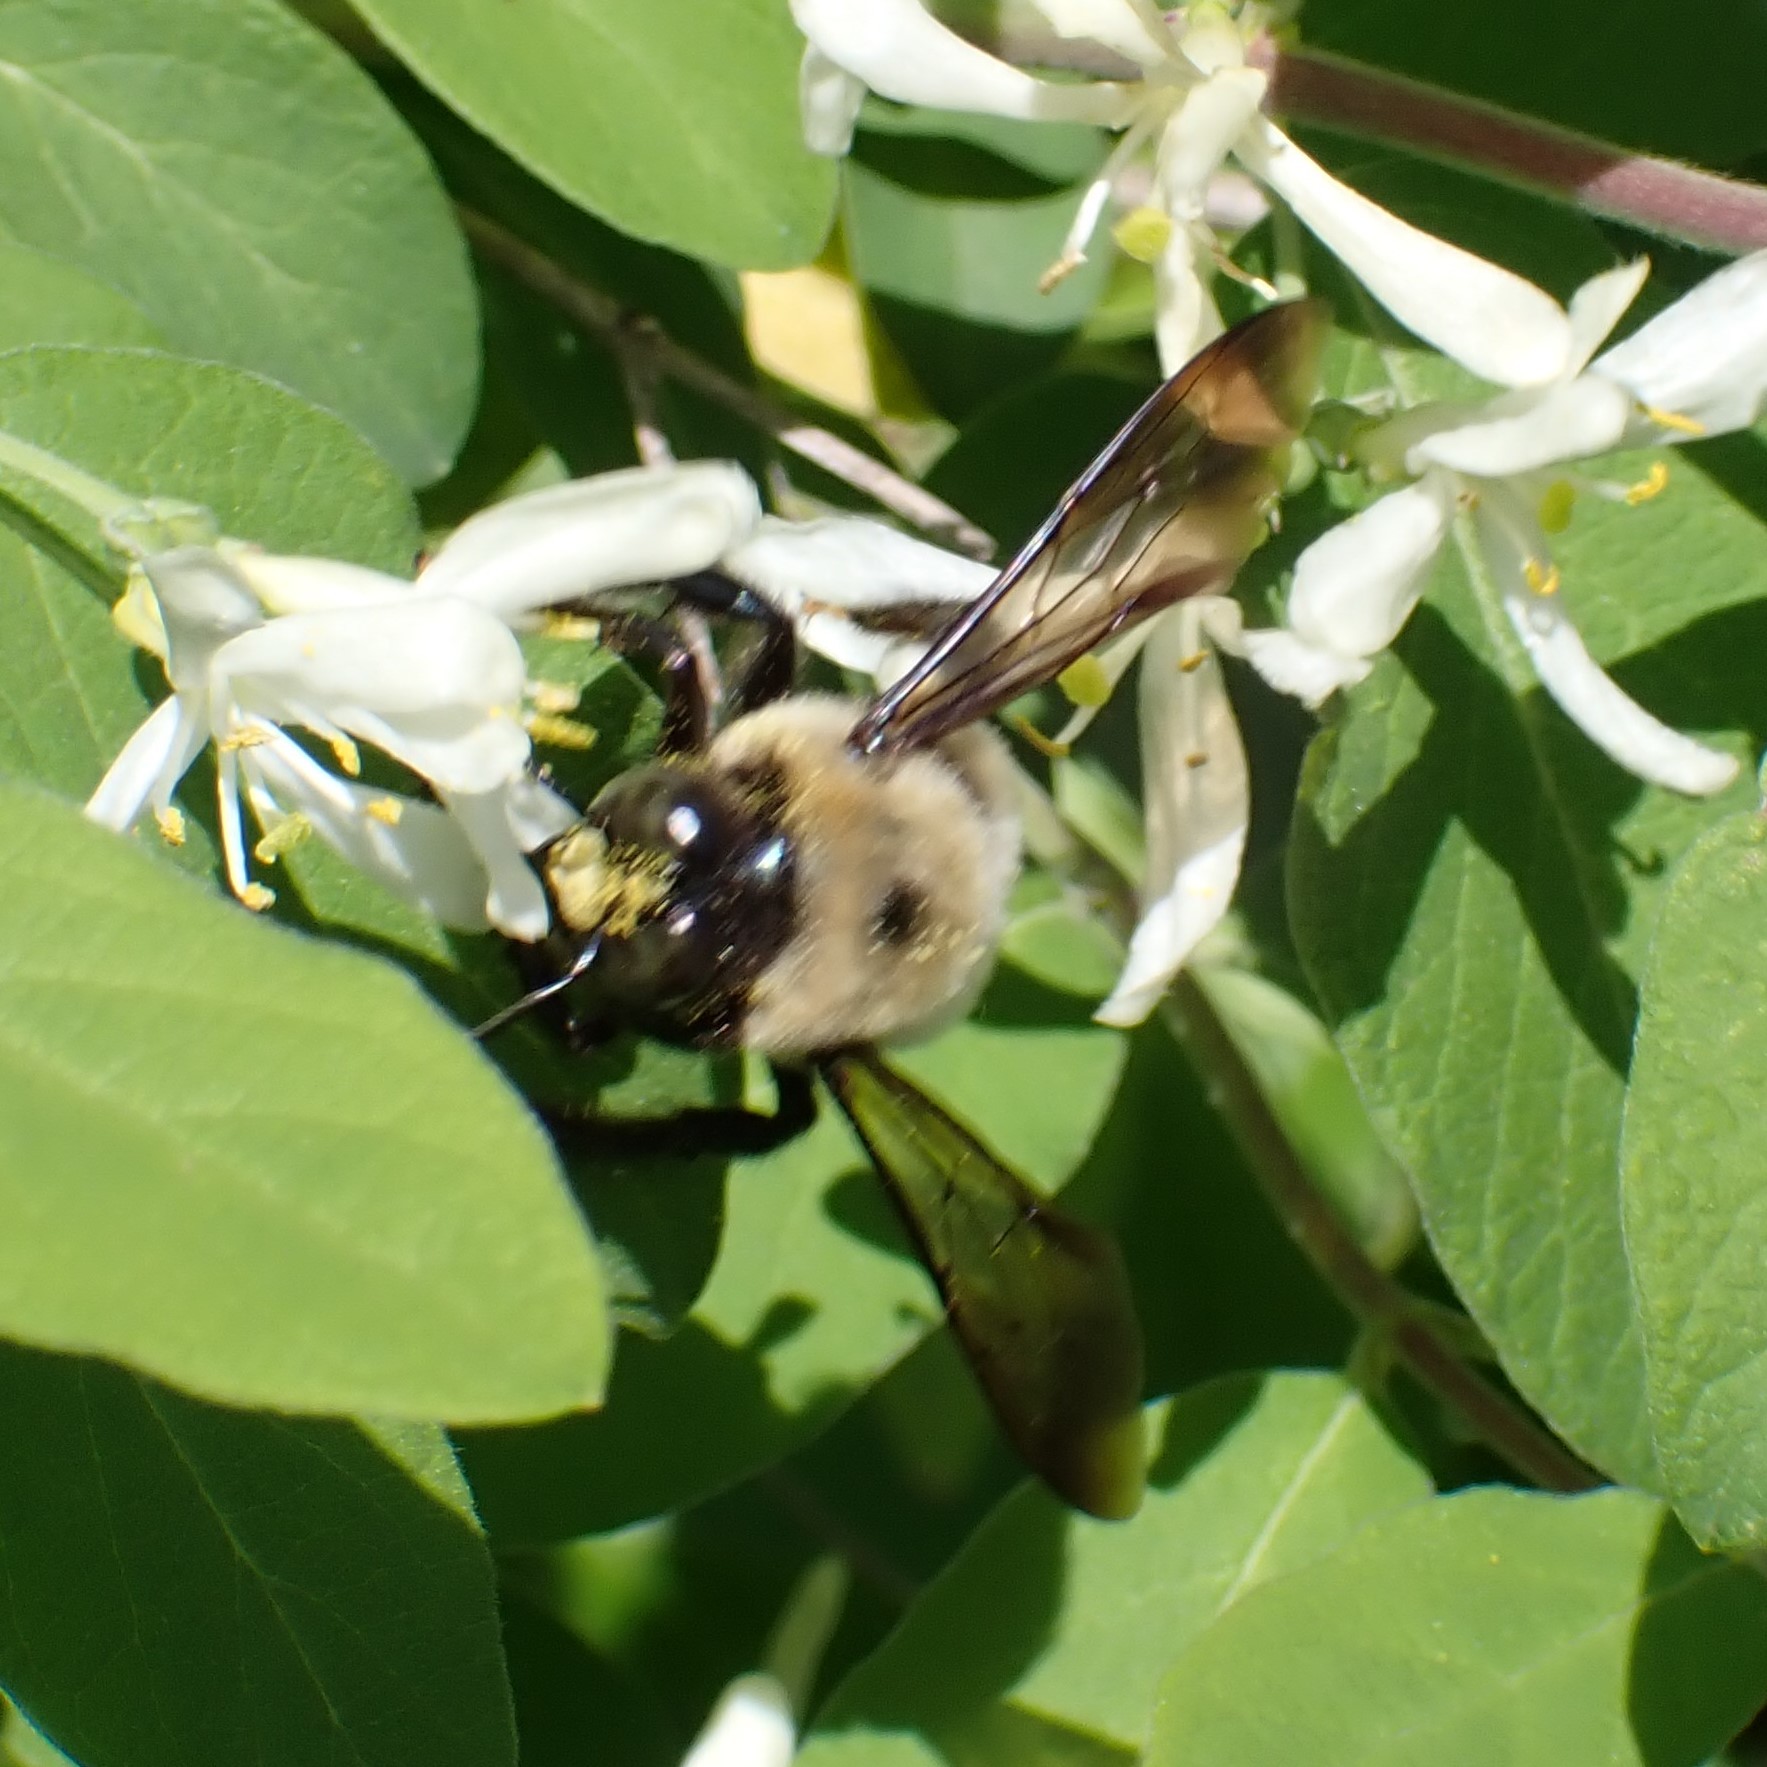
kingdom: Animalia
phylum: Arthropoda
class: Insecta
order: Hymenoptera
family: Apidae
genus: Xylocopa
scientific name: Xylocopa virginica
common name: Carpenter bee
